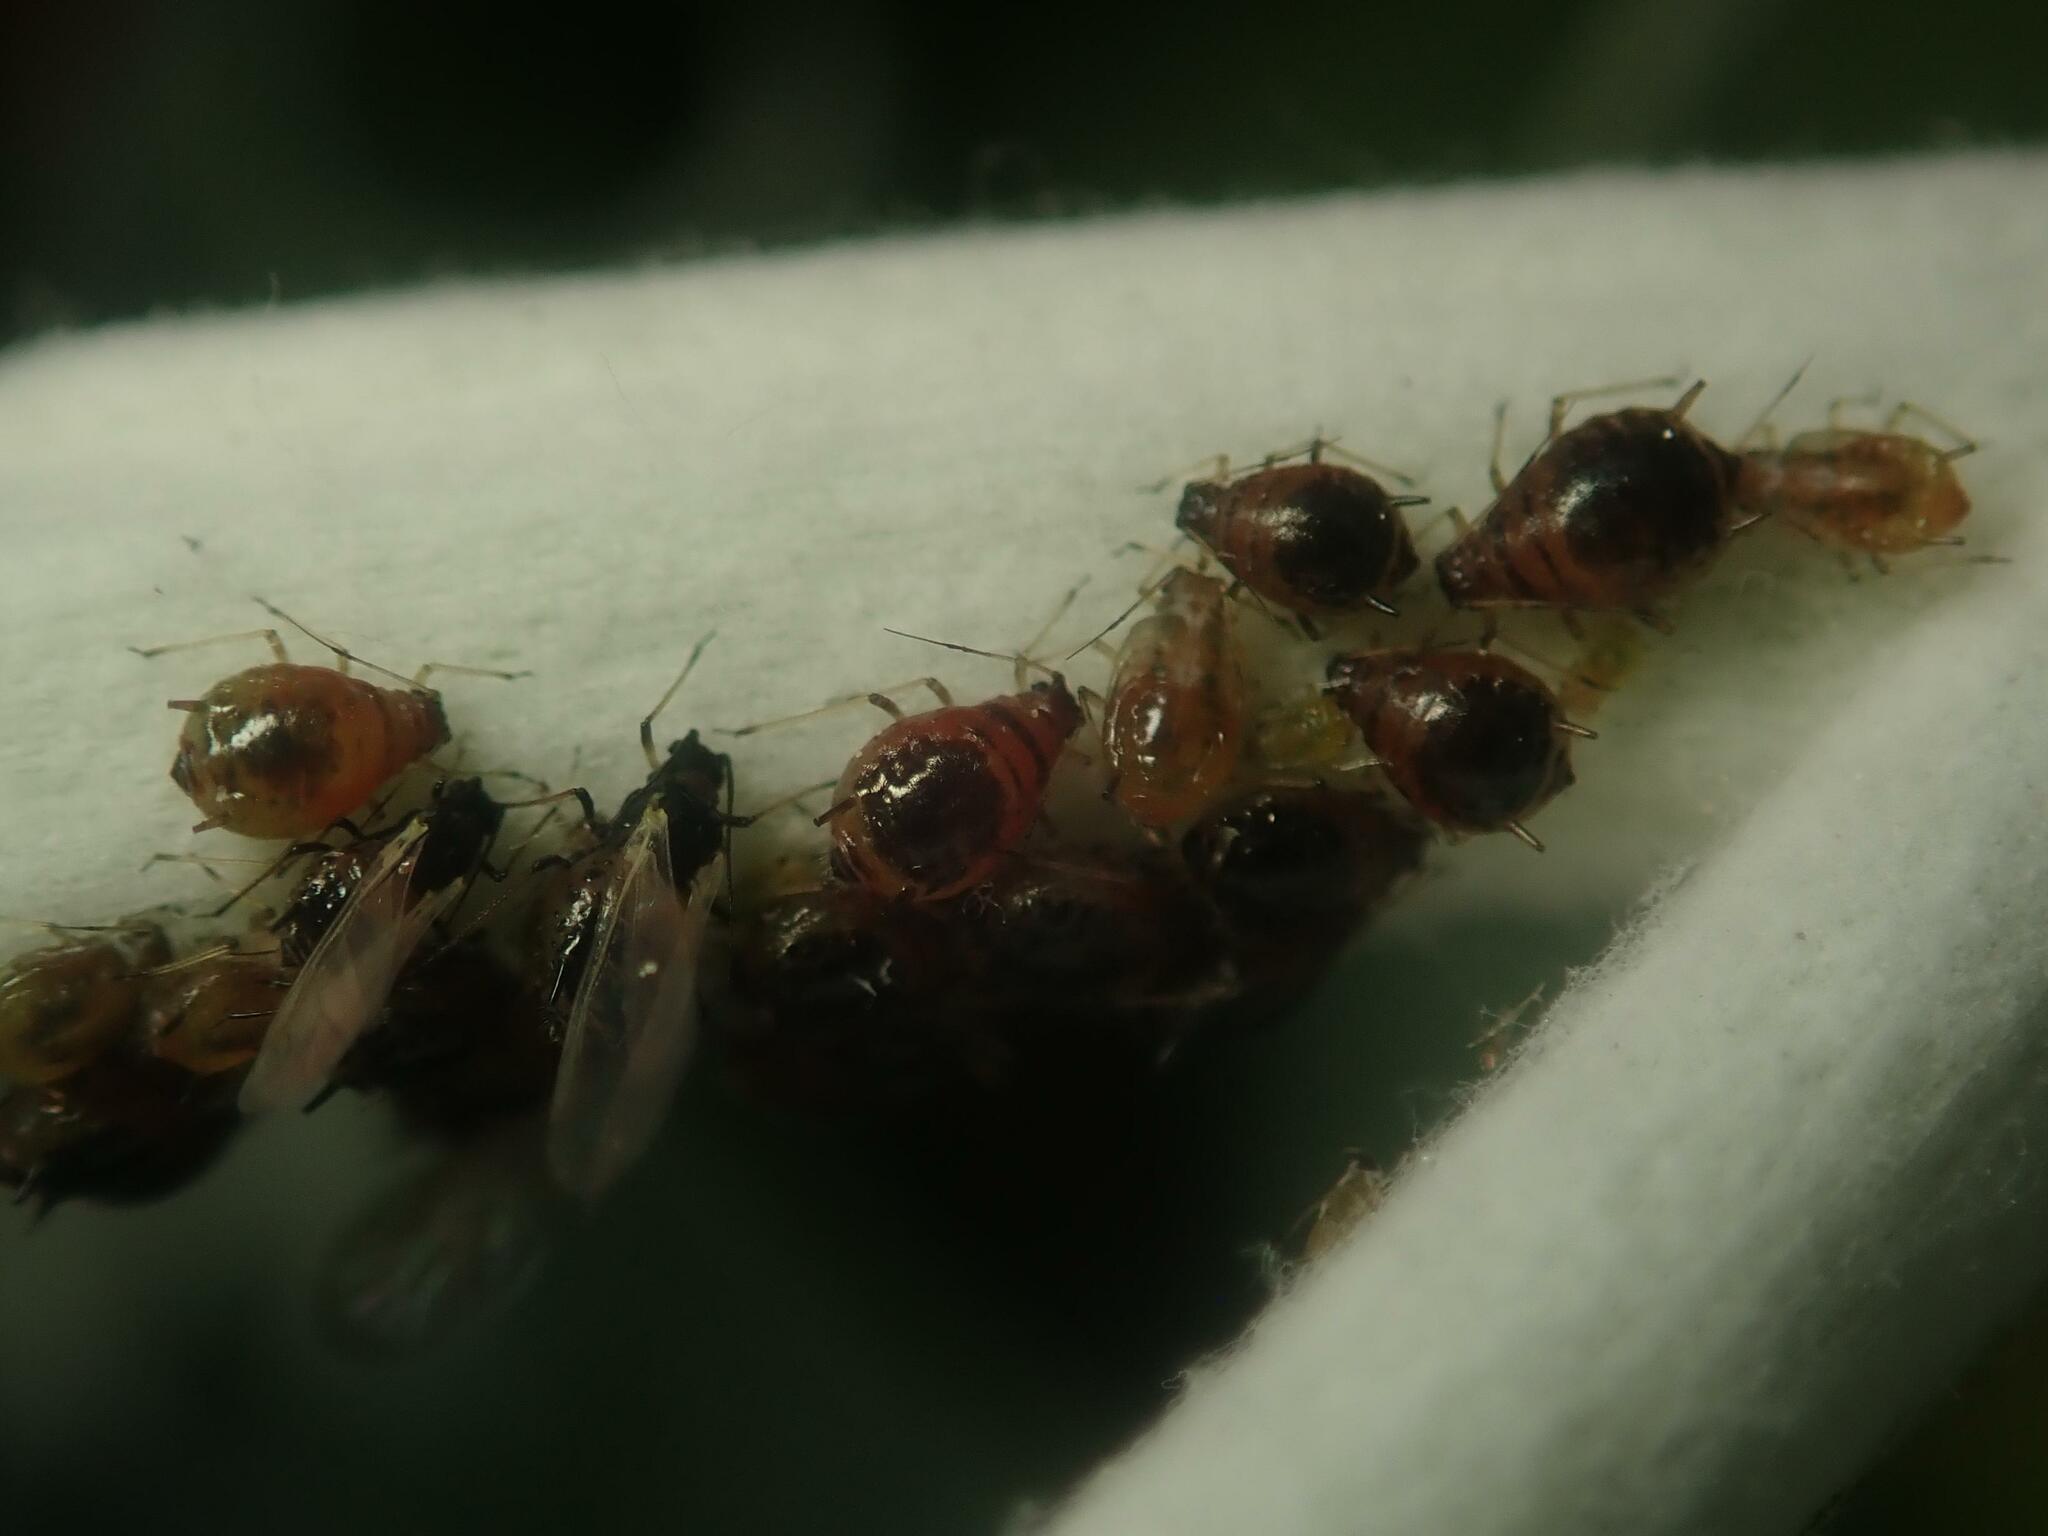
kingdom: Animalia
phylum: Arthropoda
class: Insecta
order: Hemiptera
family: Aphididae
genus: Brachycaudus
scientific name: Brachycaudus cardui
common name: Thistle aphid
